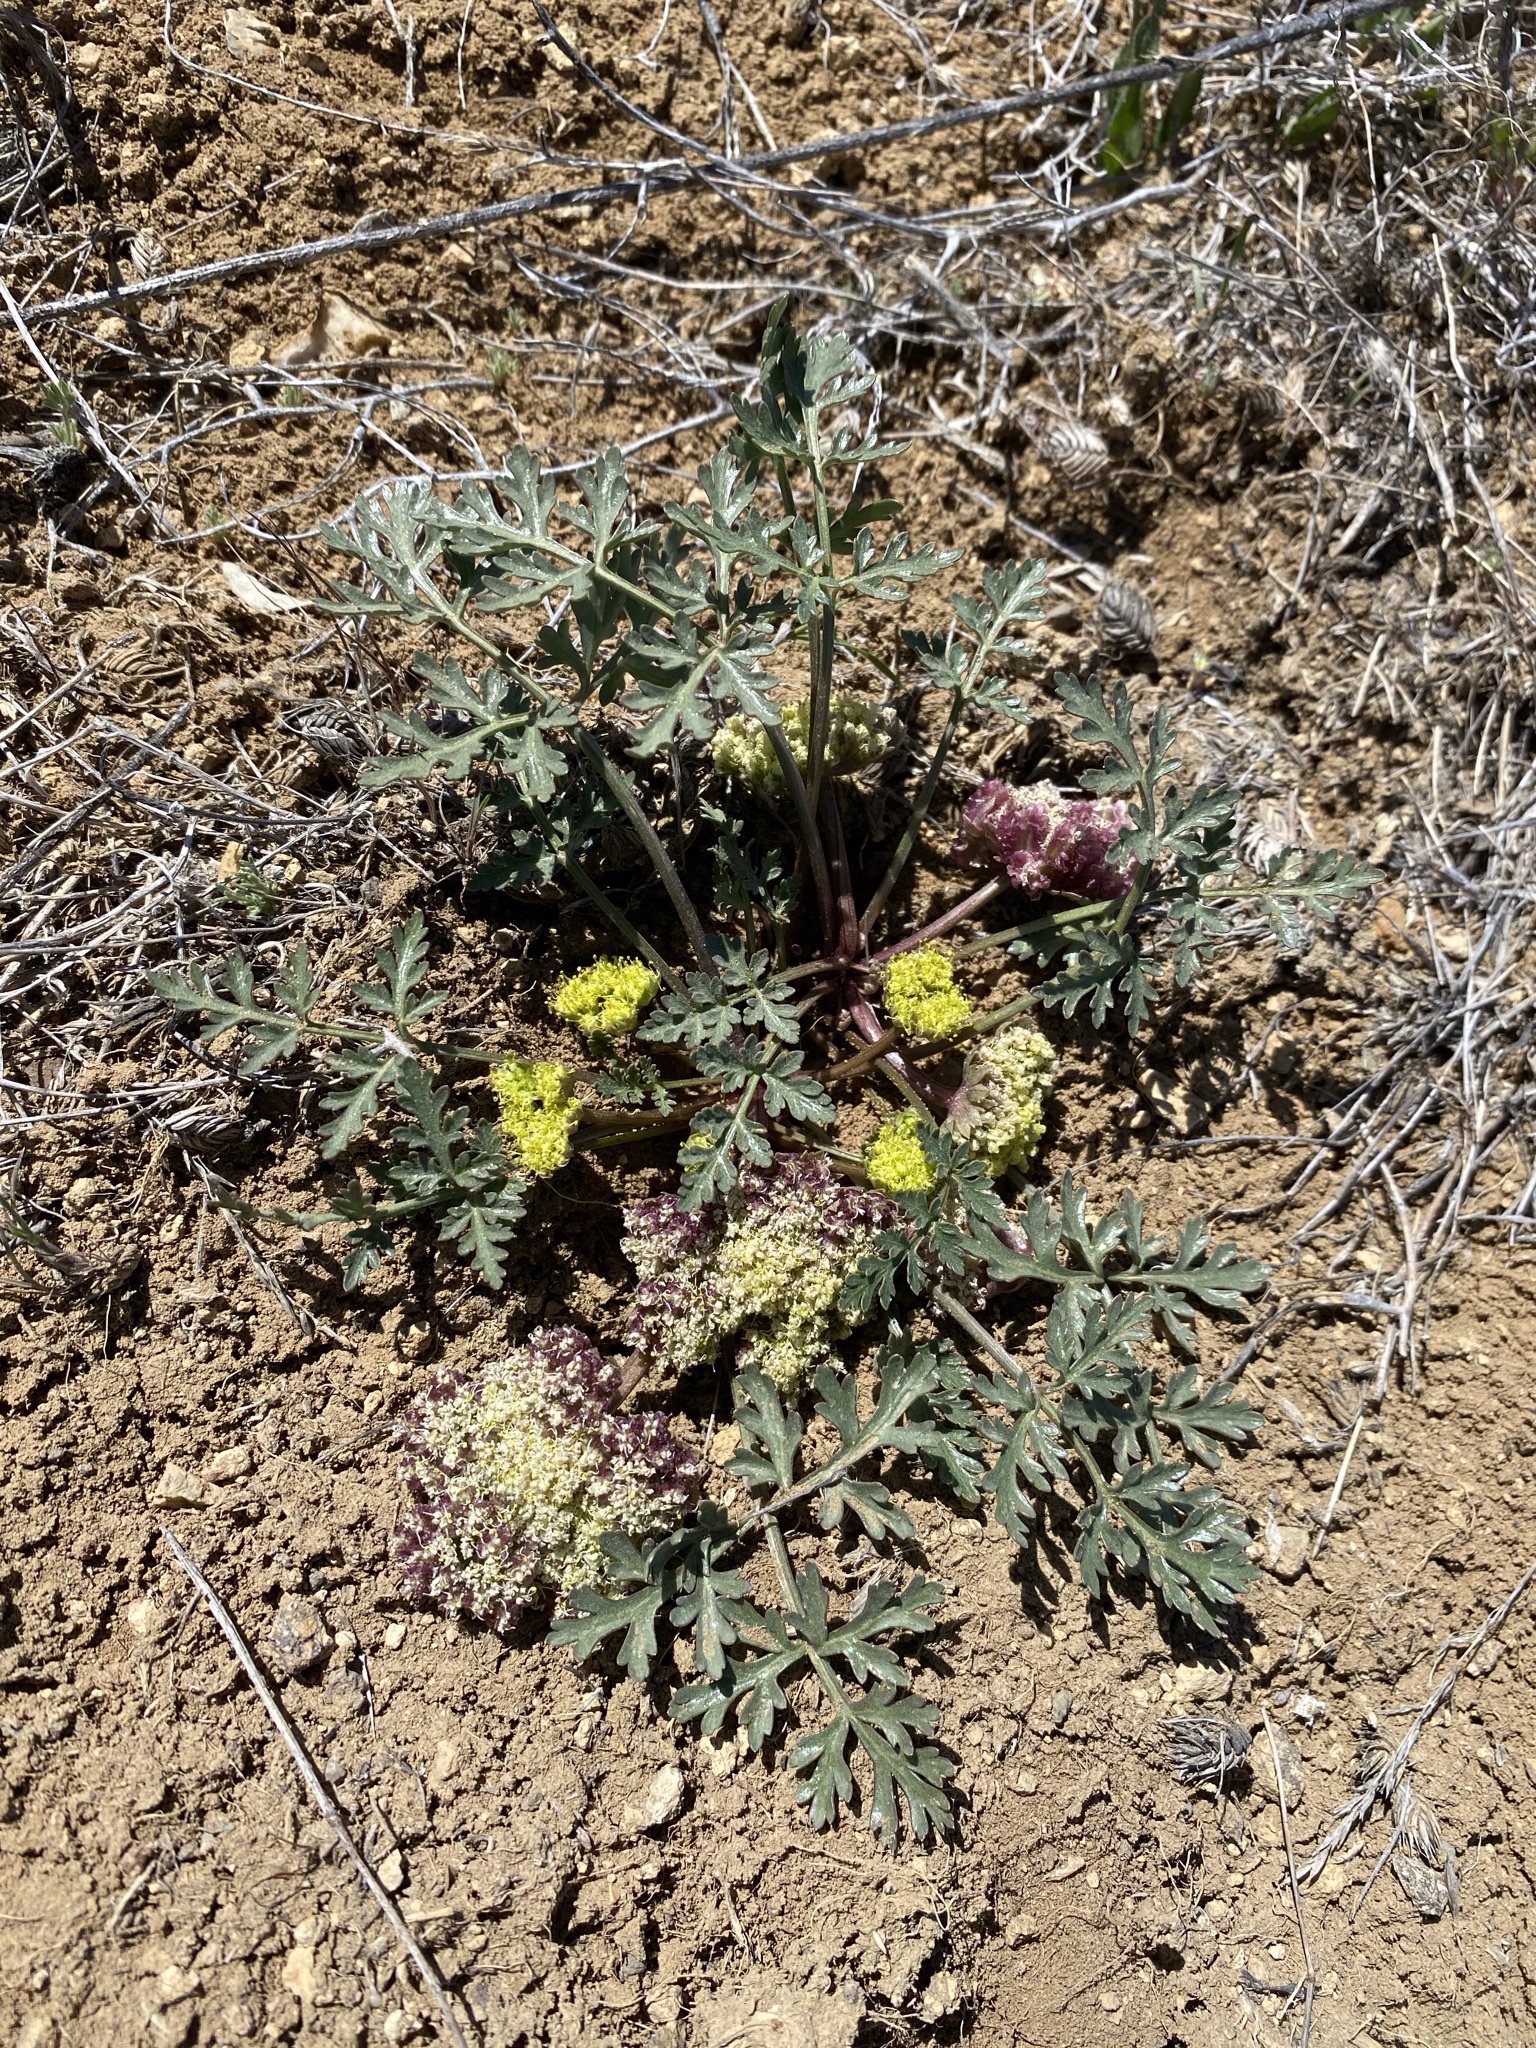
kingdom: Plantae
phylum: Tracheophyta
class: Magnoliopsida
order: Apiales
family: Apiaceae
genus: Cymopterus
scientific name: Cymopterus glomeratus
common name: Plains spring parsley
